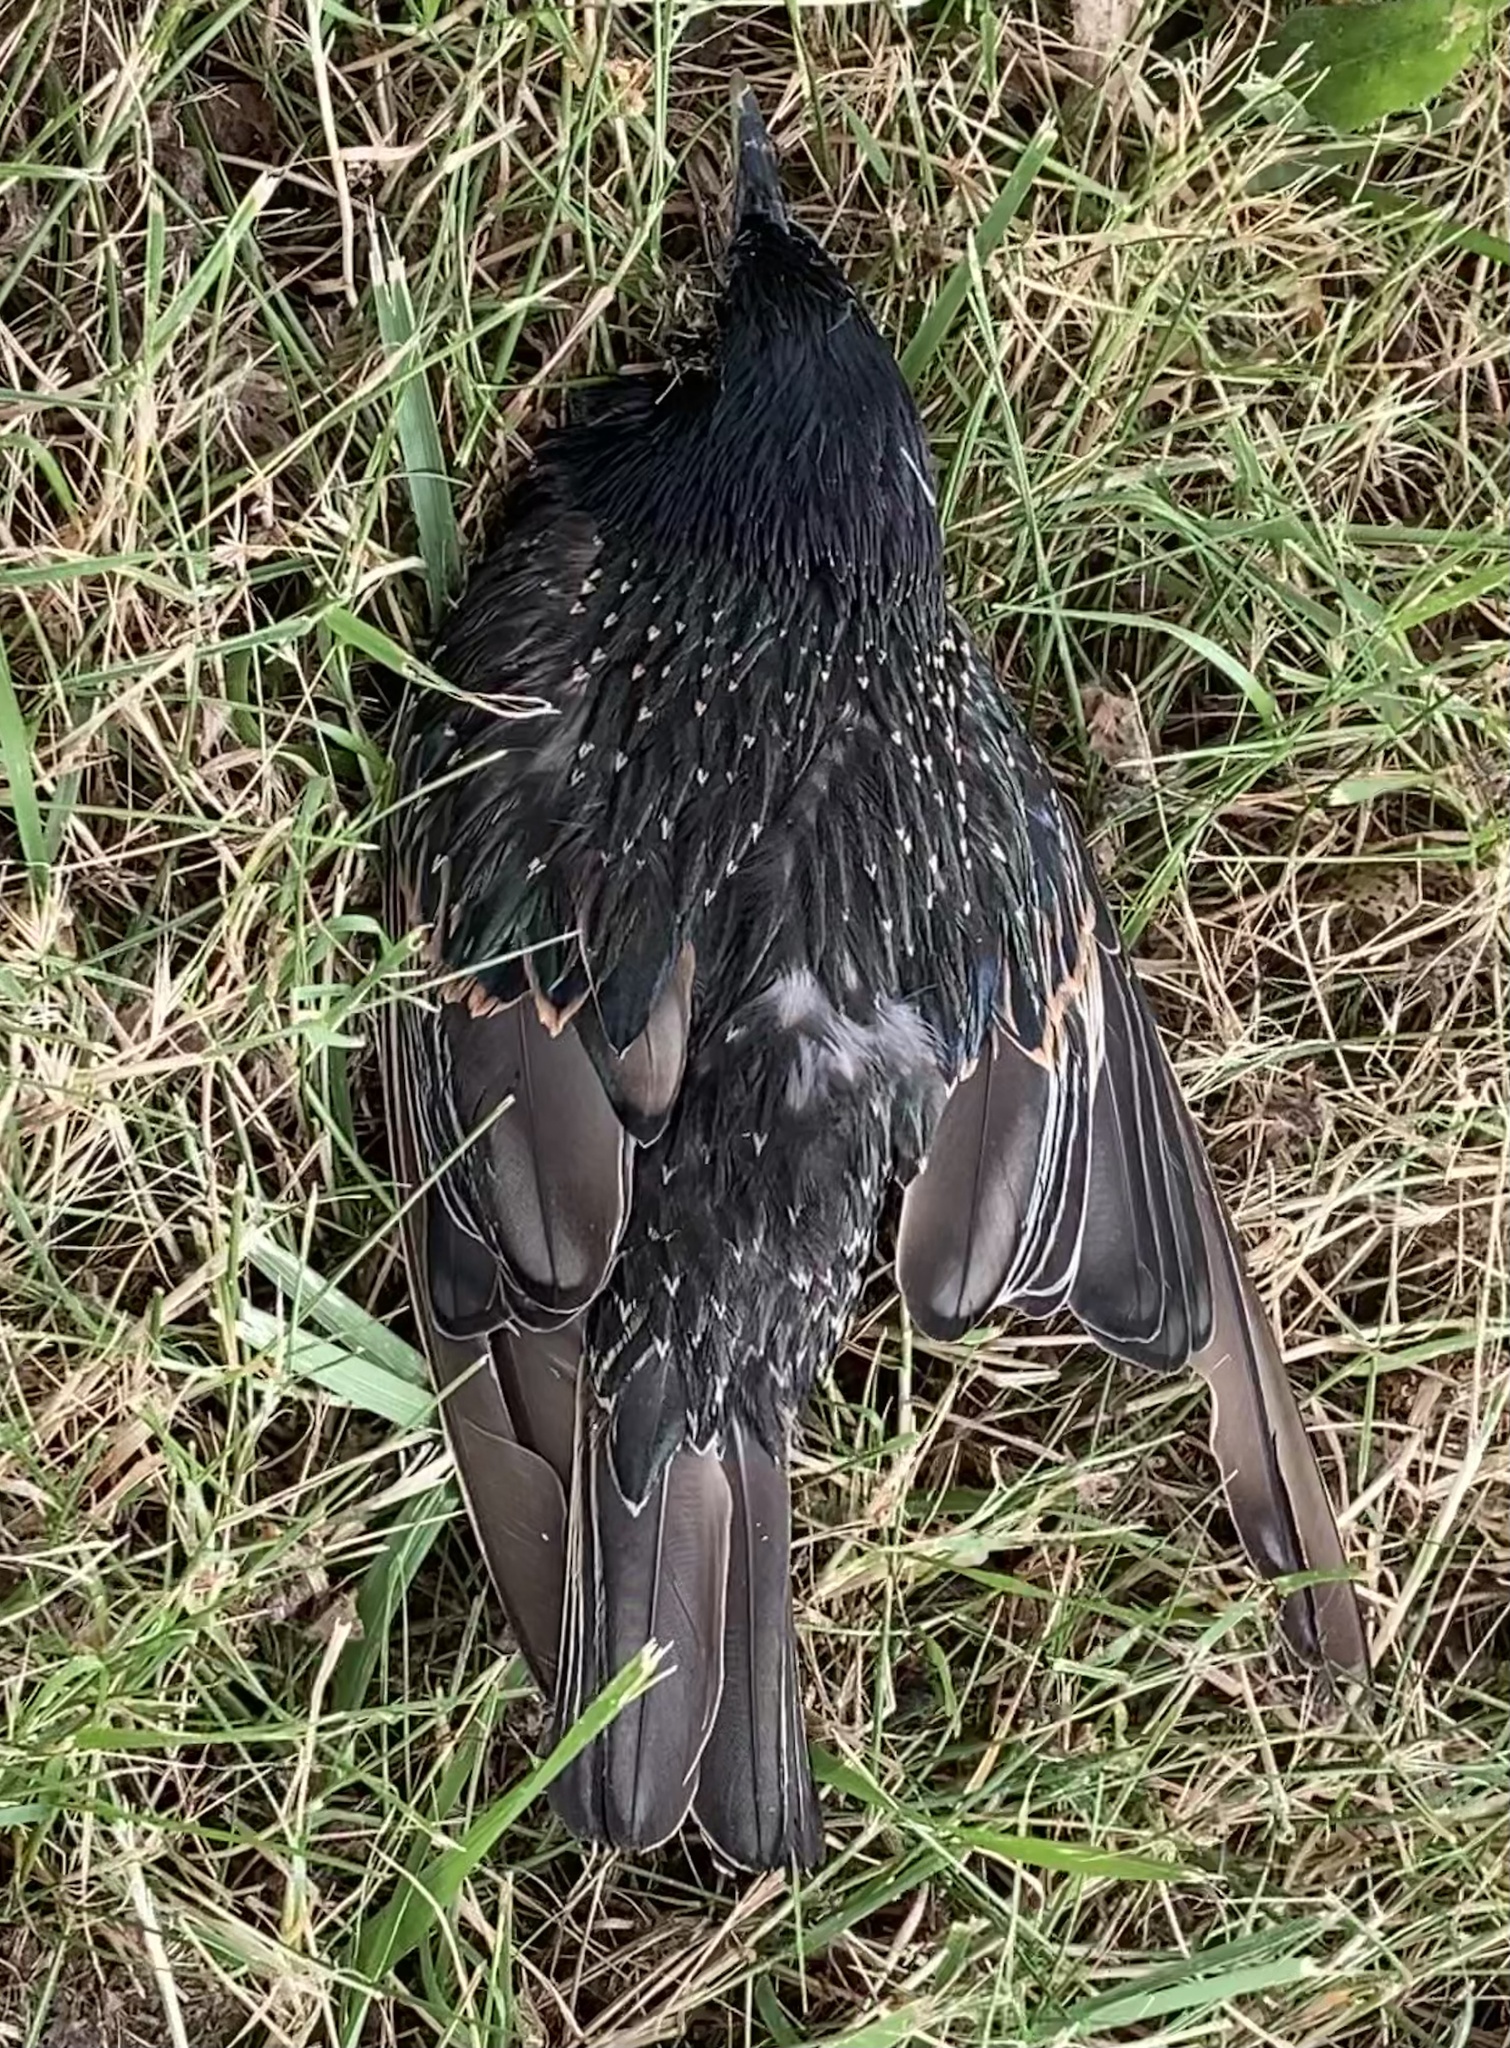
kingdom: Animalia
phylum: Chordata
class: Aves
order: Passeriformes
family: Sturnidae
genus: Sturnus
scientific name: Sturnus vulgaris
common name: Common starling
